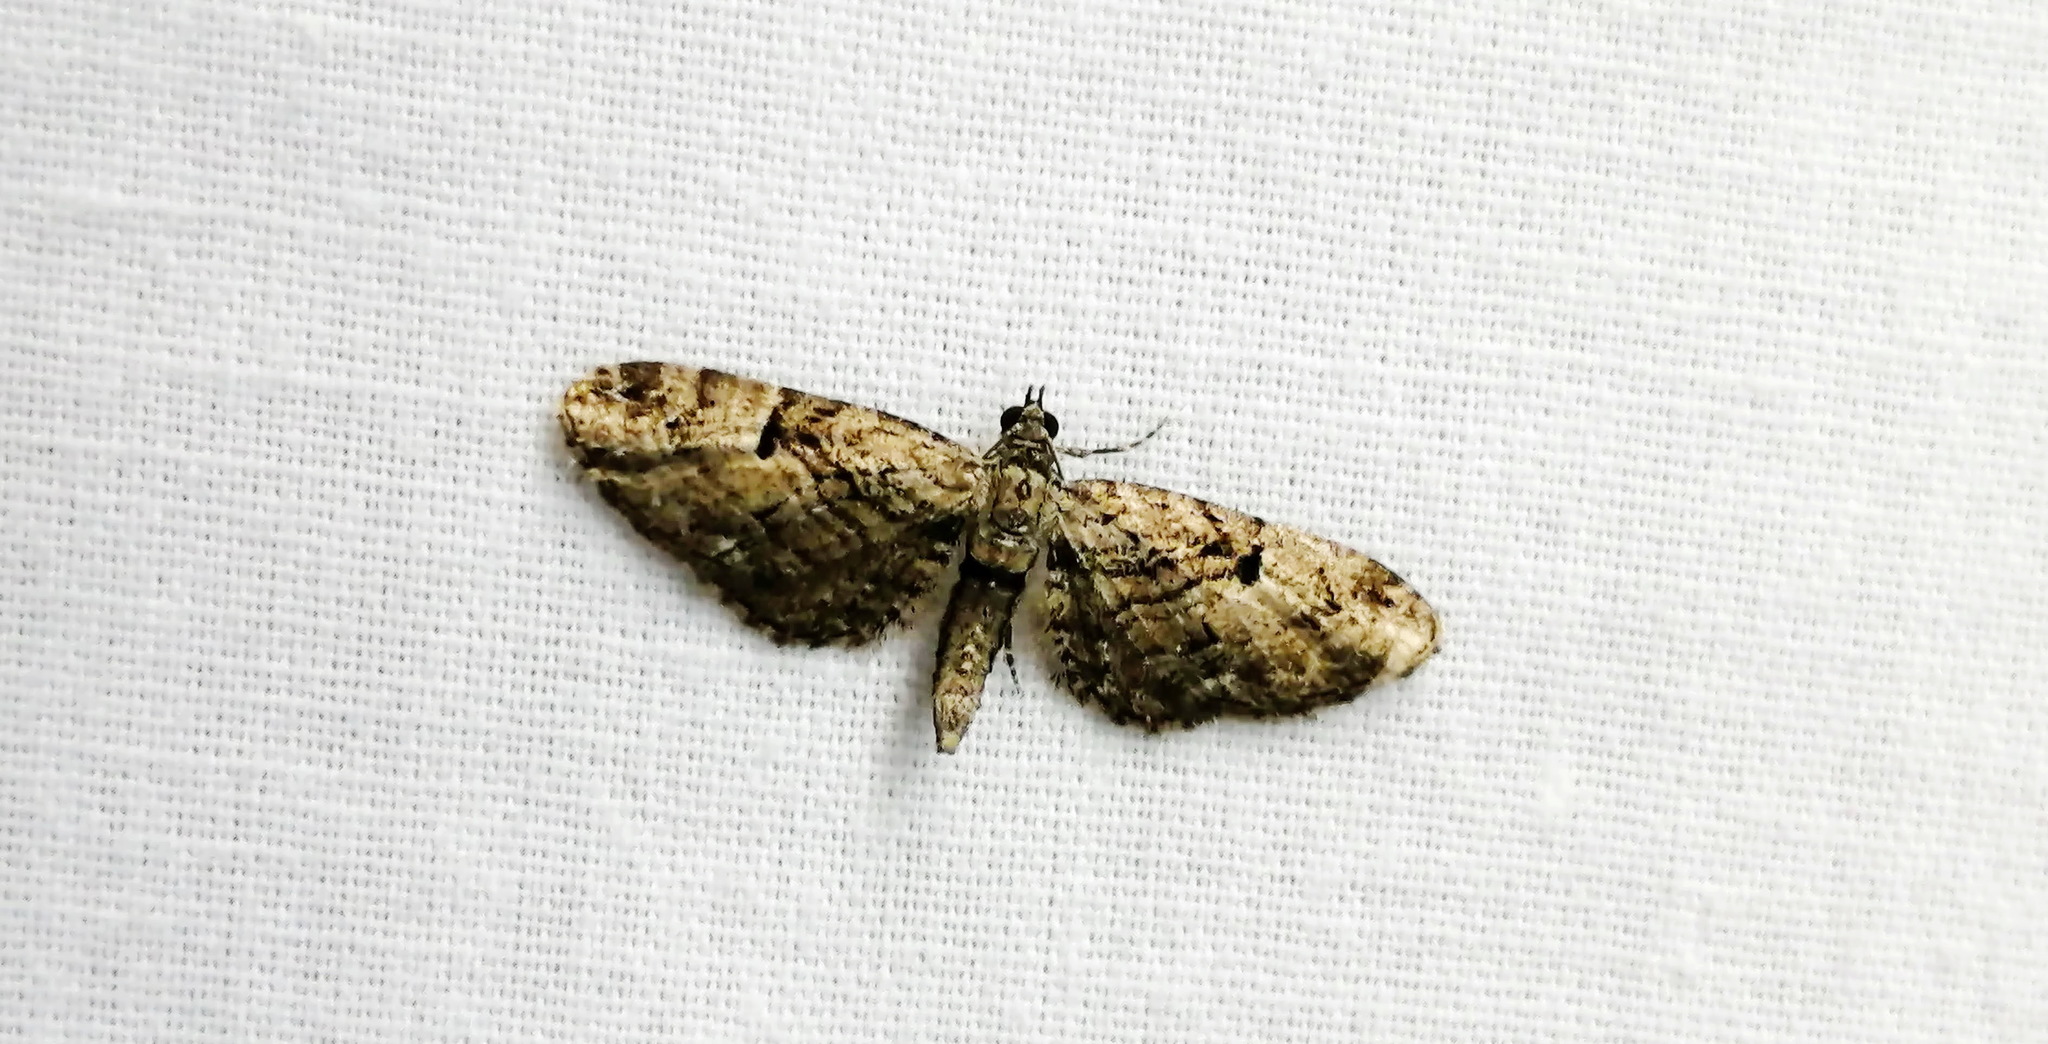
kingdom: Animalia
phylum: Arthropoda
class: Insecta
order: Lepidoptera
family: Geometridae
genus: Eupithecia
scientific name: Eupithecia interruptofasciata
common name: Juniper looper moth
